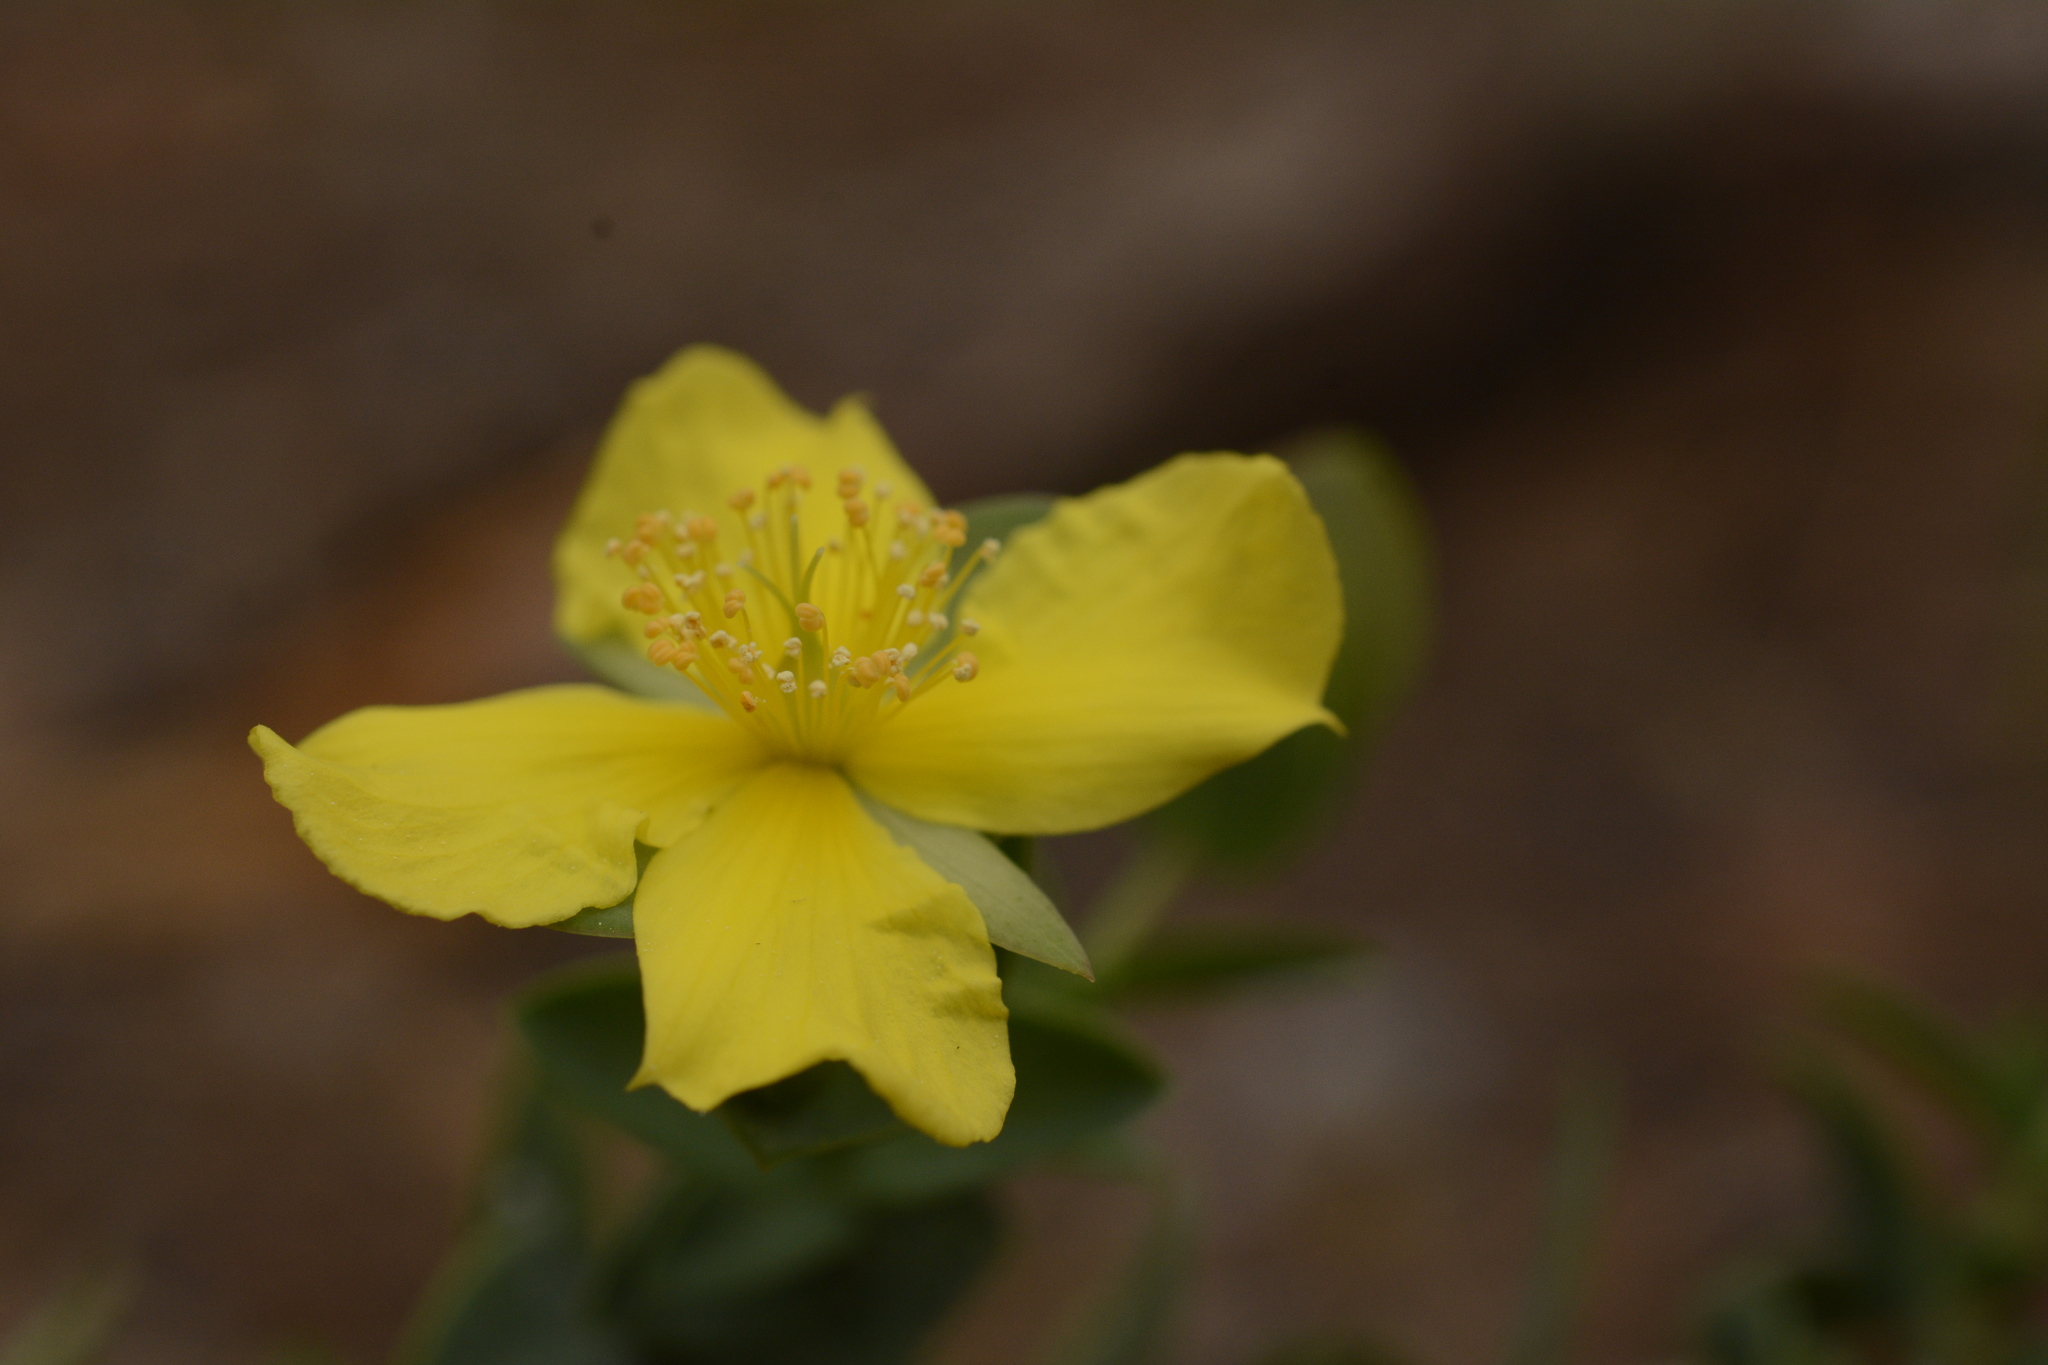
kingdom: Plantae
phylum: Tracheophyta
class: Magnoliopsida
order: Malpighiales
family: Hypericaceae
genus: Hypericum
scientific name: Hypericum tetrapetalum
